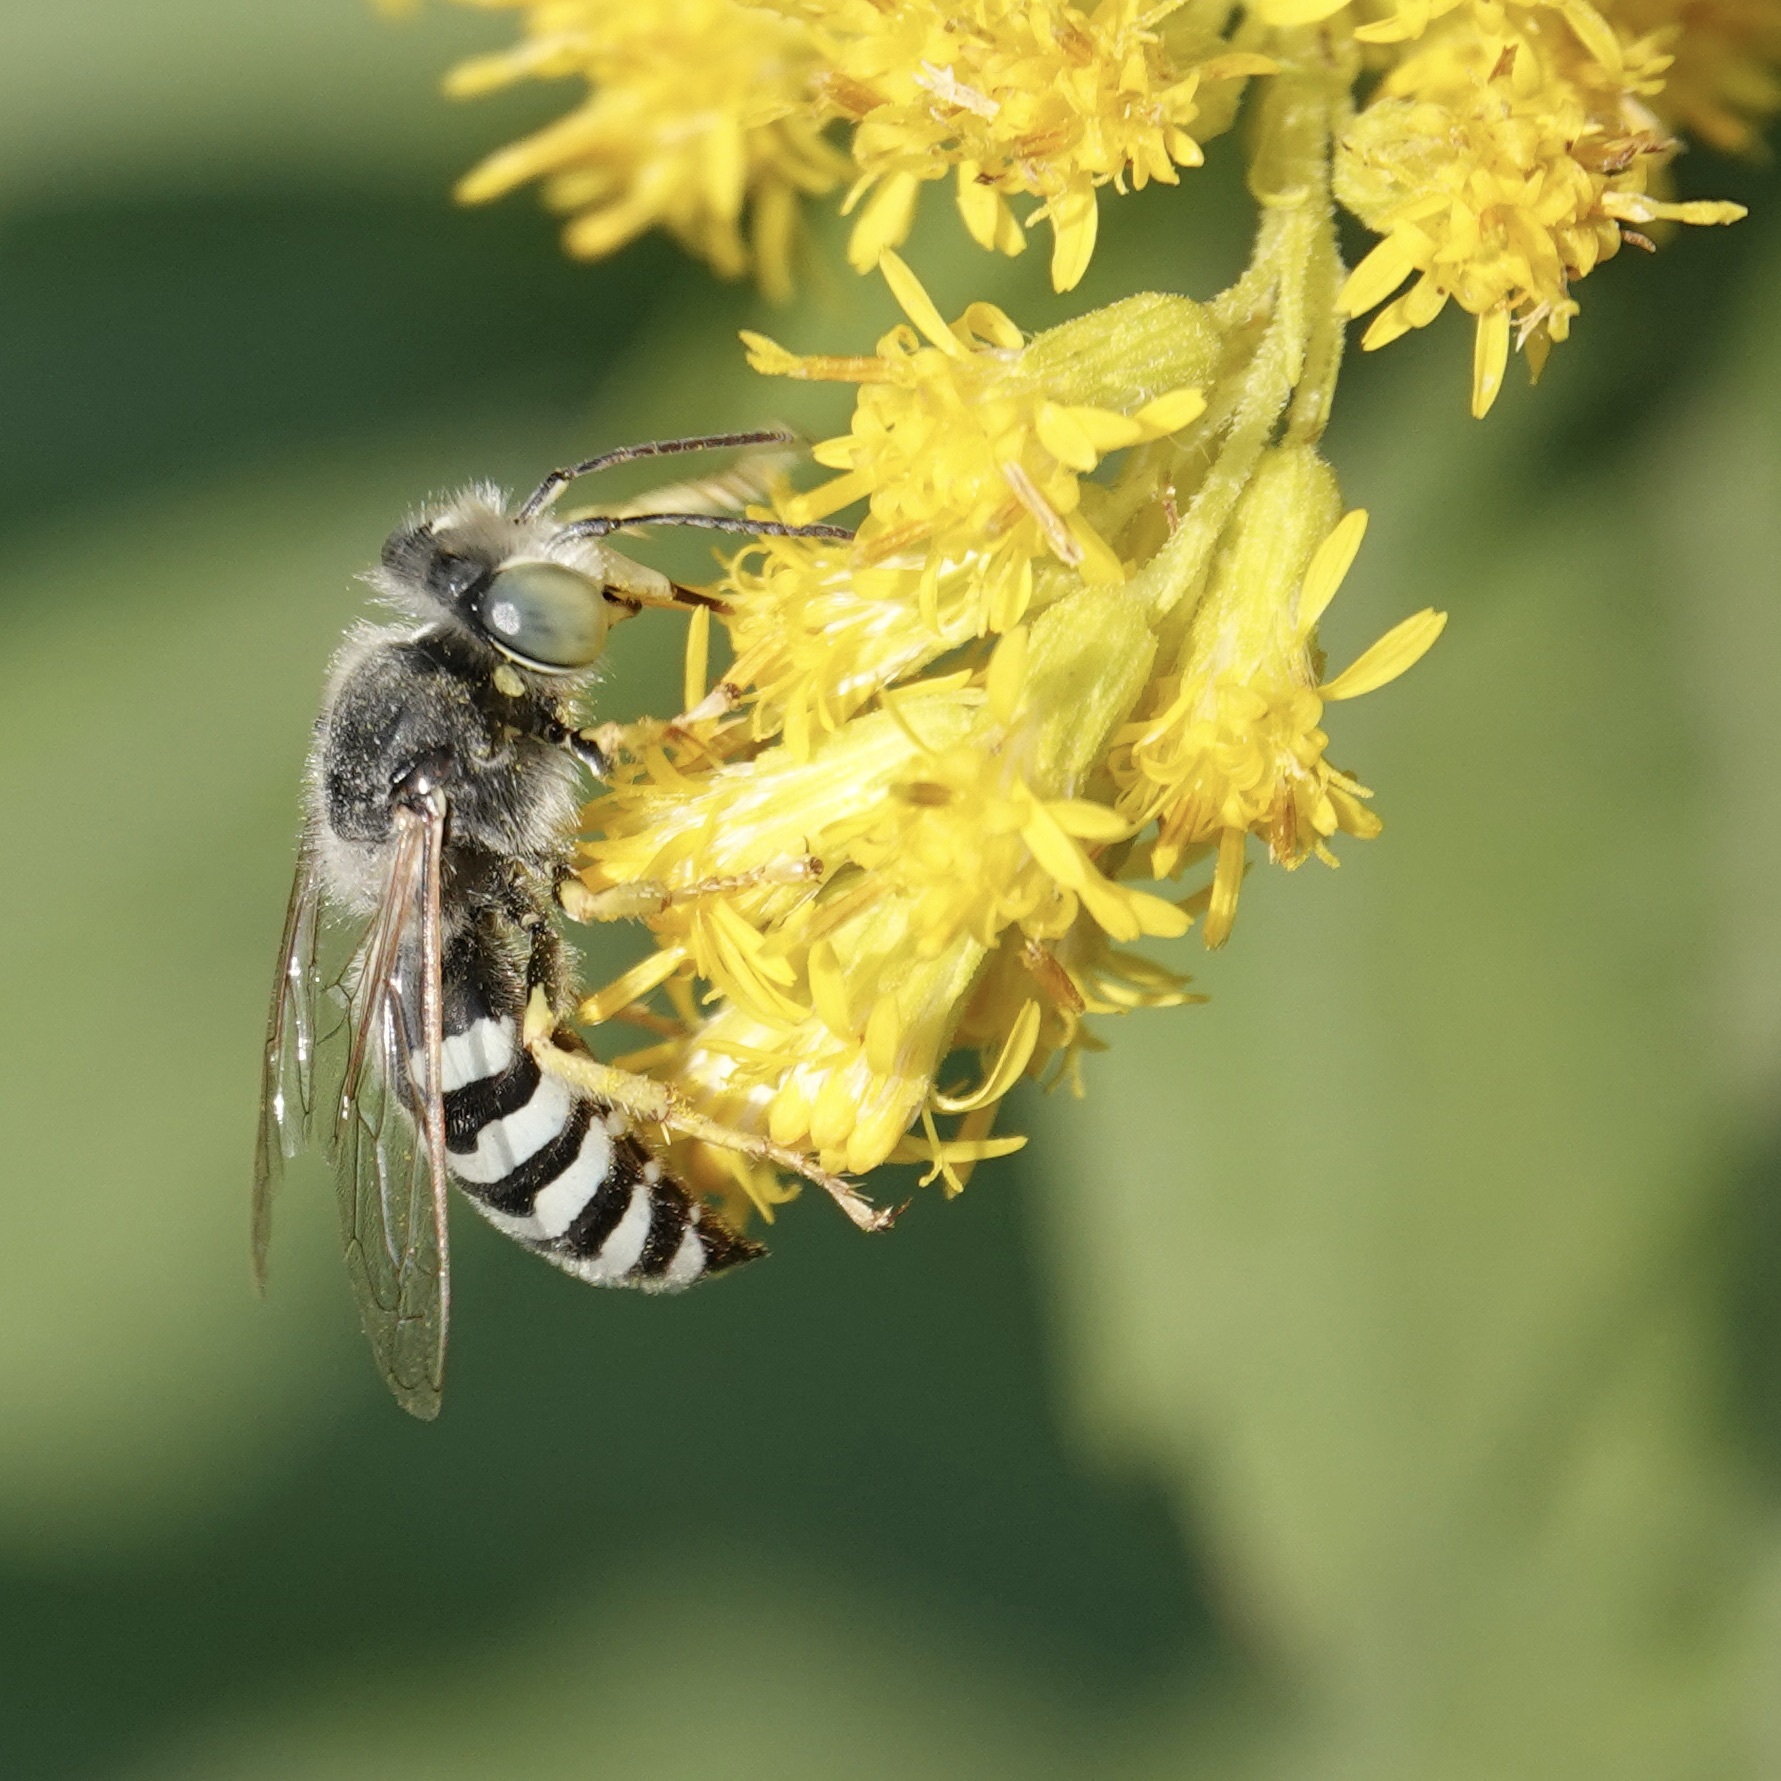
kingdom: Animalia
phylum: Arthropoda
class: Insecta
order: Hymenoptera
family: Crabronidae
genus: Bembix
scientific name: Bembix americana
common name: American sand wasp
